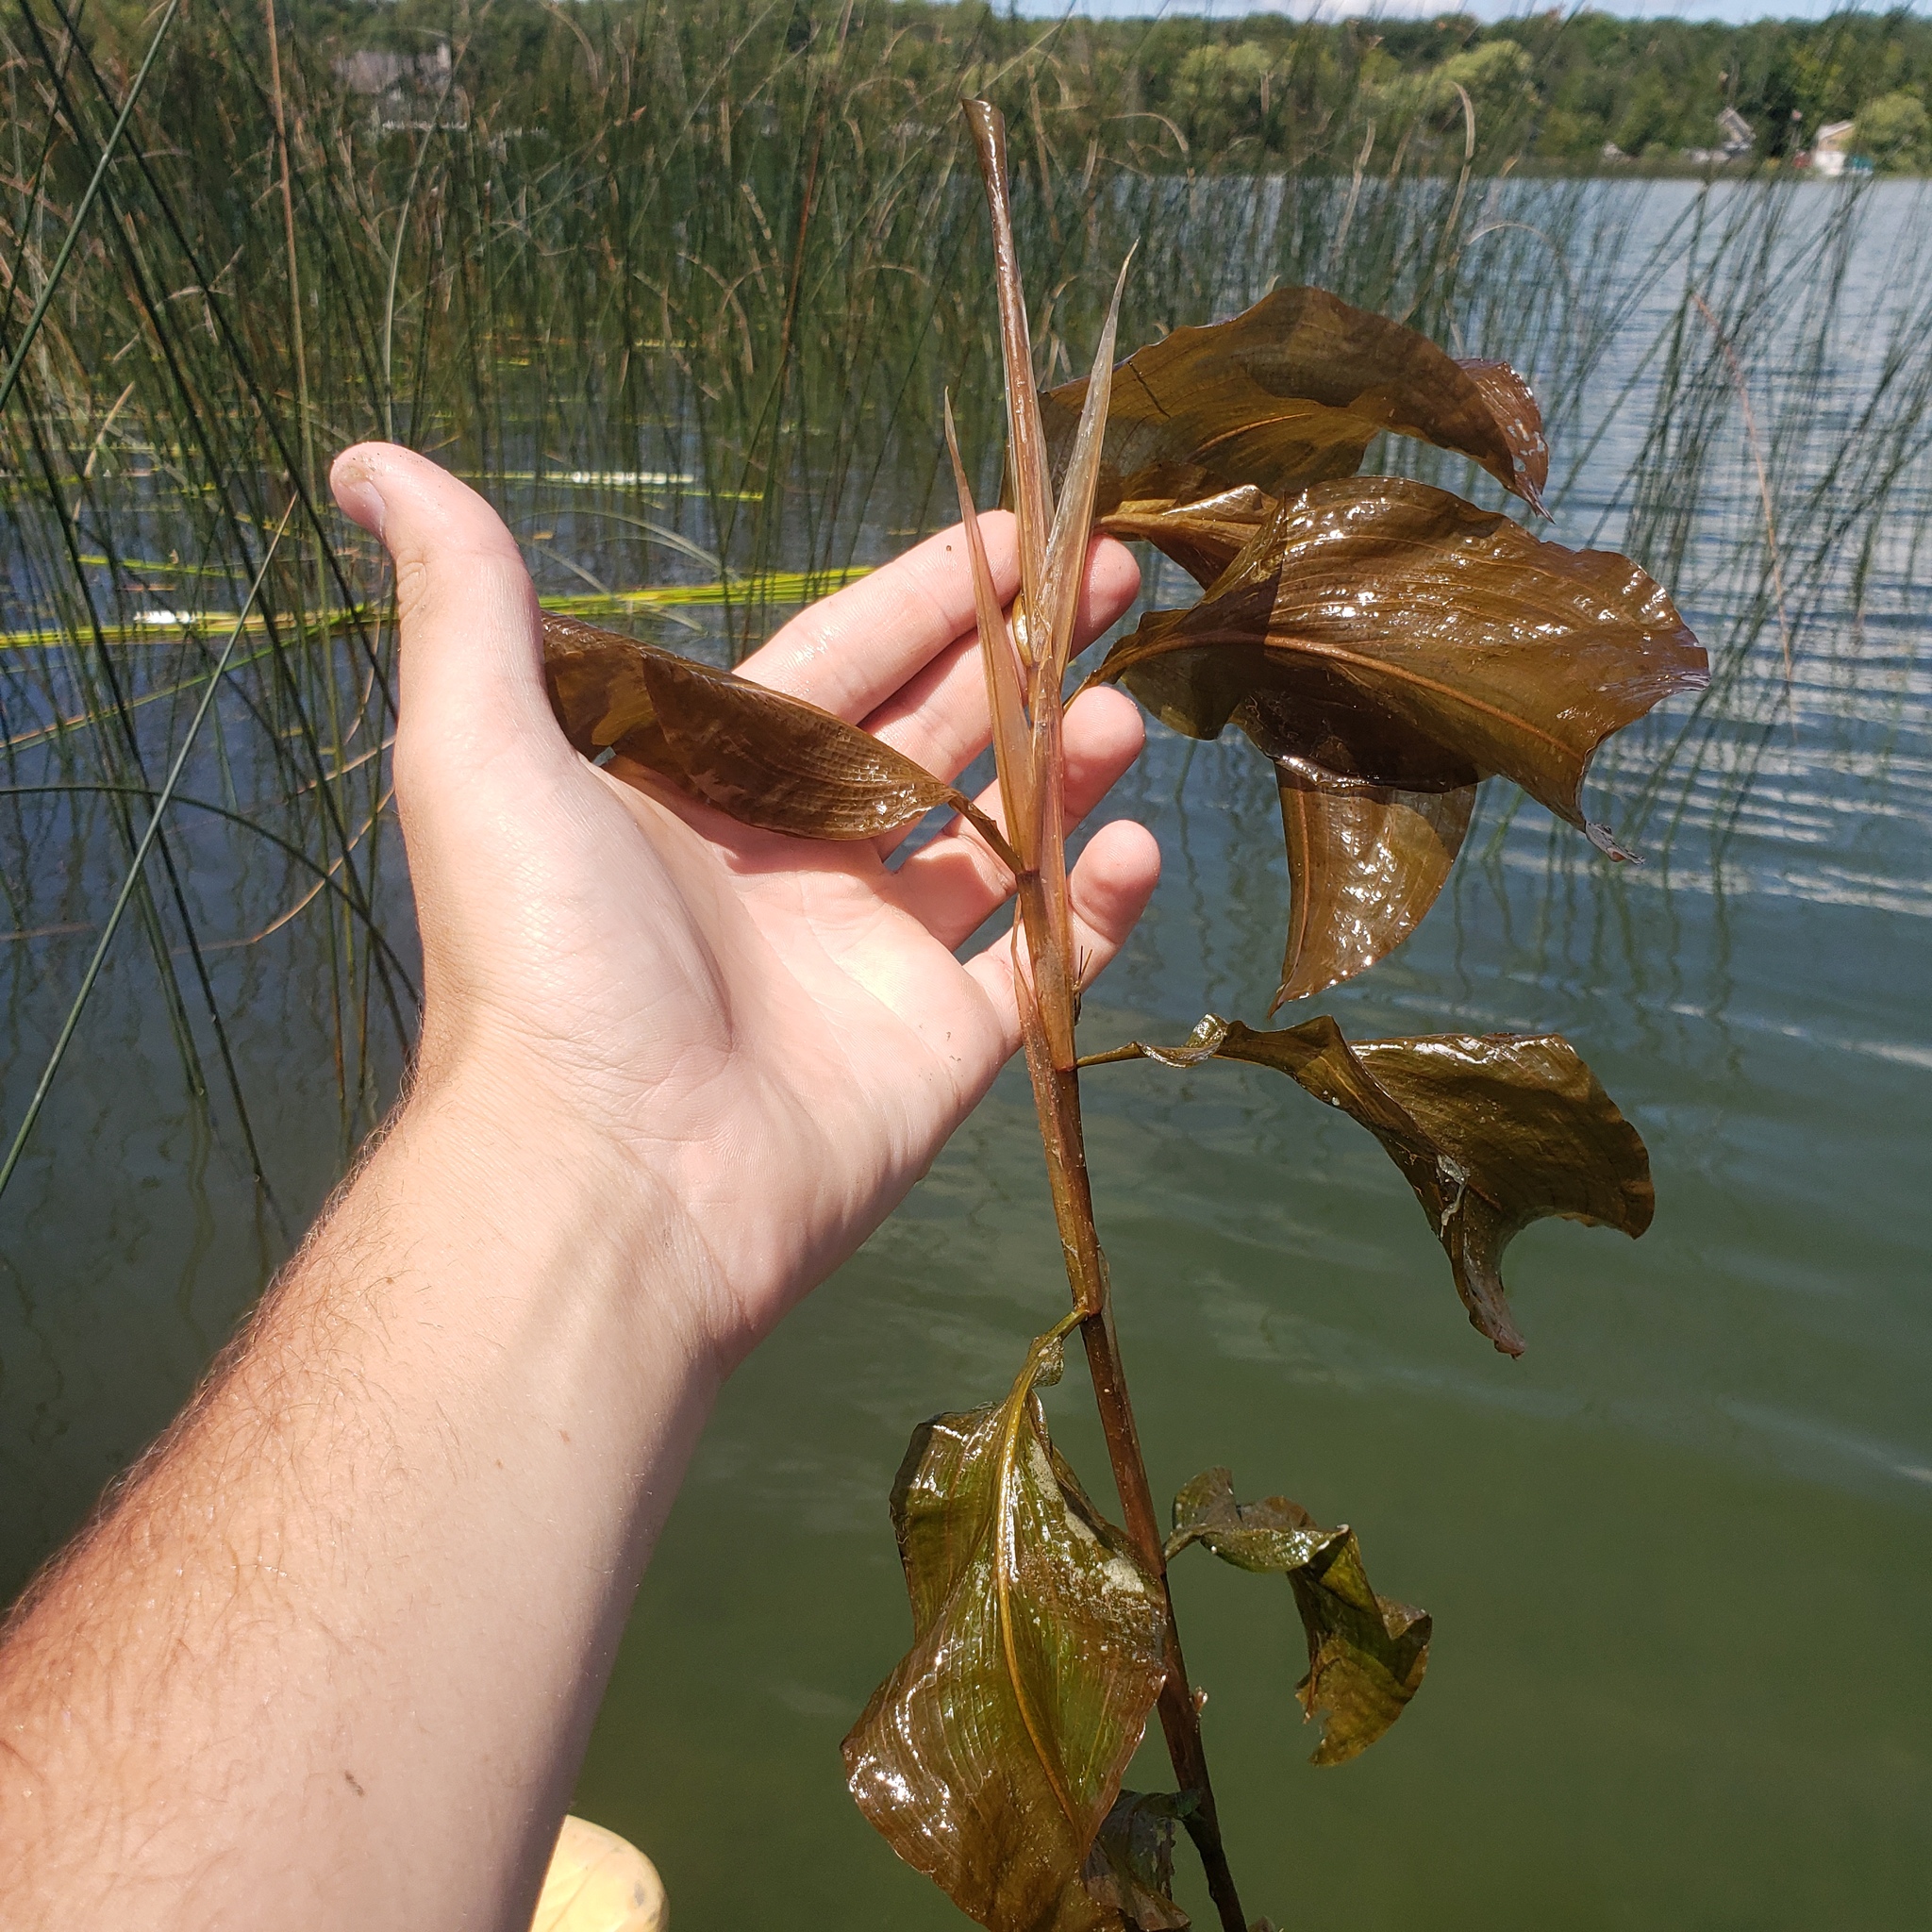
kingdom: Plantae
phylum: Tracheophyta
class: Liliopsida
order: Alismatales
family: Potamogetonaceae
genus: Potamogeton
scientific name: Potamogeton amplifolius
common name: Broad-leaved pondweed
